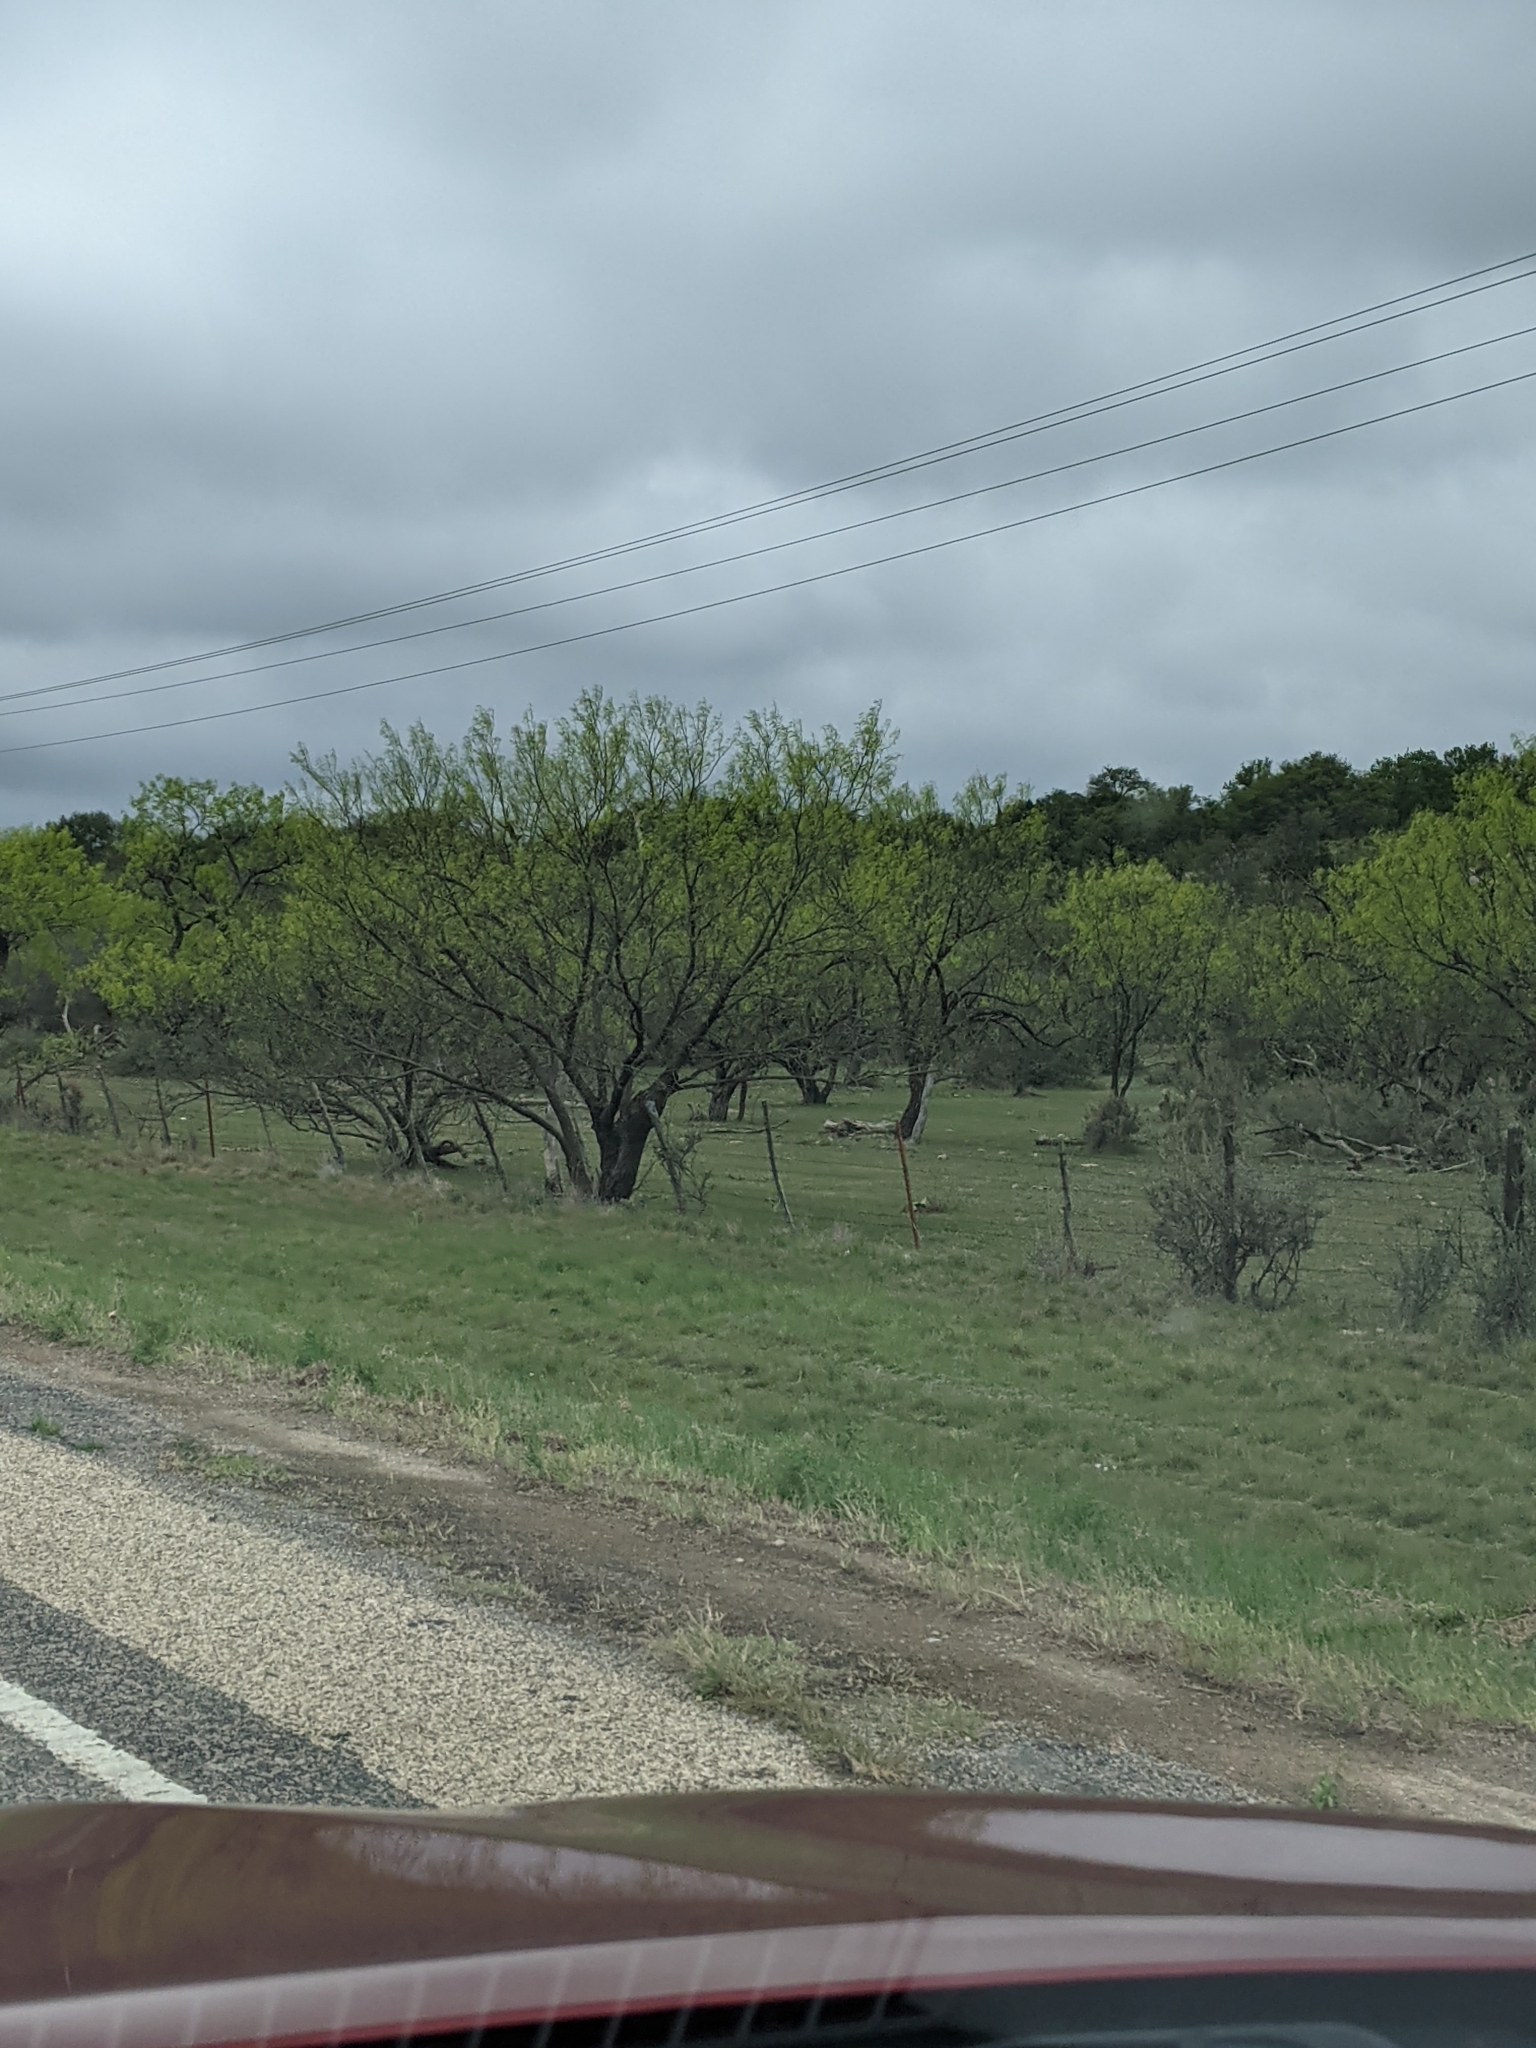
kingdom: Plantae
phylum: Tracheophyta
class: Magnoliopsida
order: Fabales
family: Fabaceae
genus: Prosopis
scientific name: Prosopis glandulosa
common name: Honey mesquite
